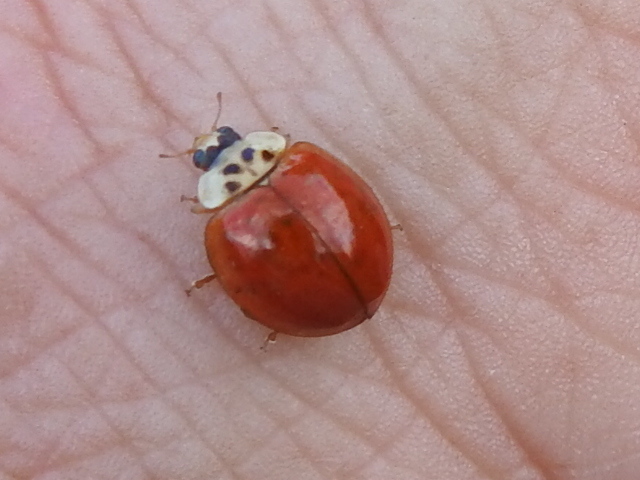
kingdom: Animalia
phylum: Arthropoda
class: Insecta
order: Coleoptera
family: Coccinellidae
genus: Harmonia
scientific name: Harmonia axyridis
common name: Harlequin ladybird
